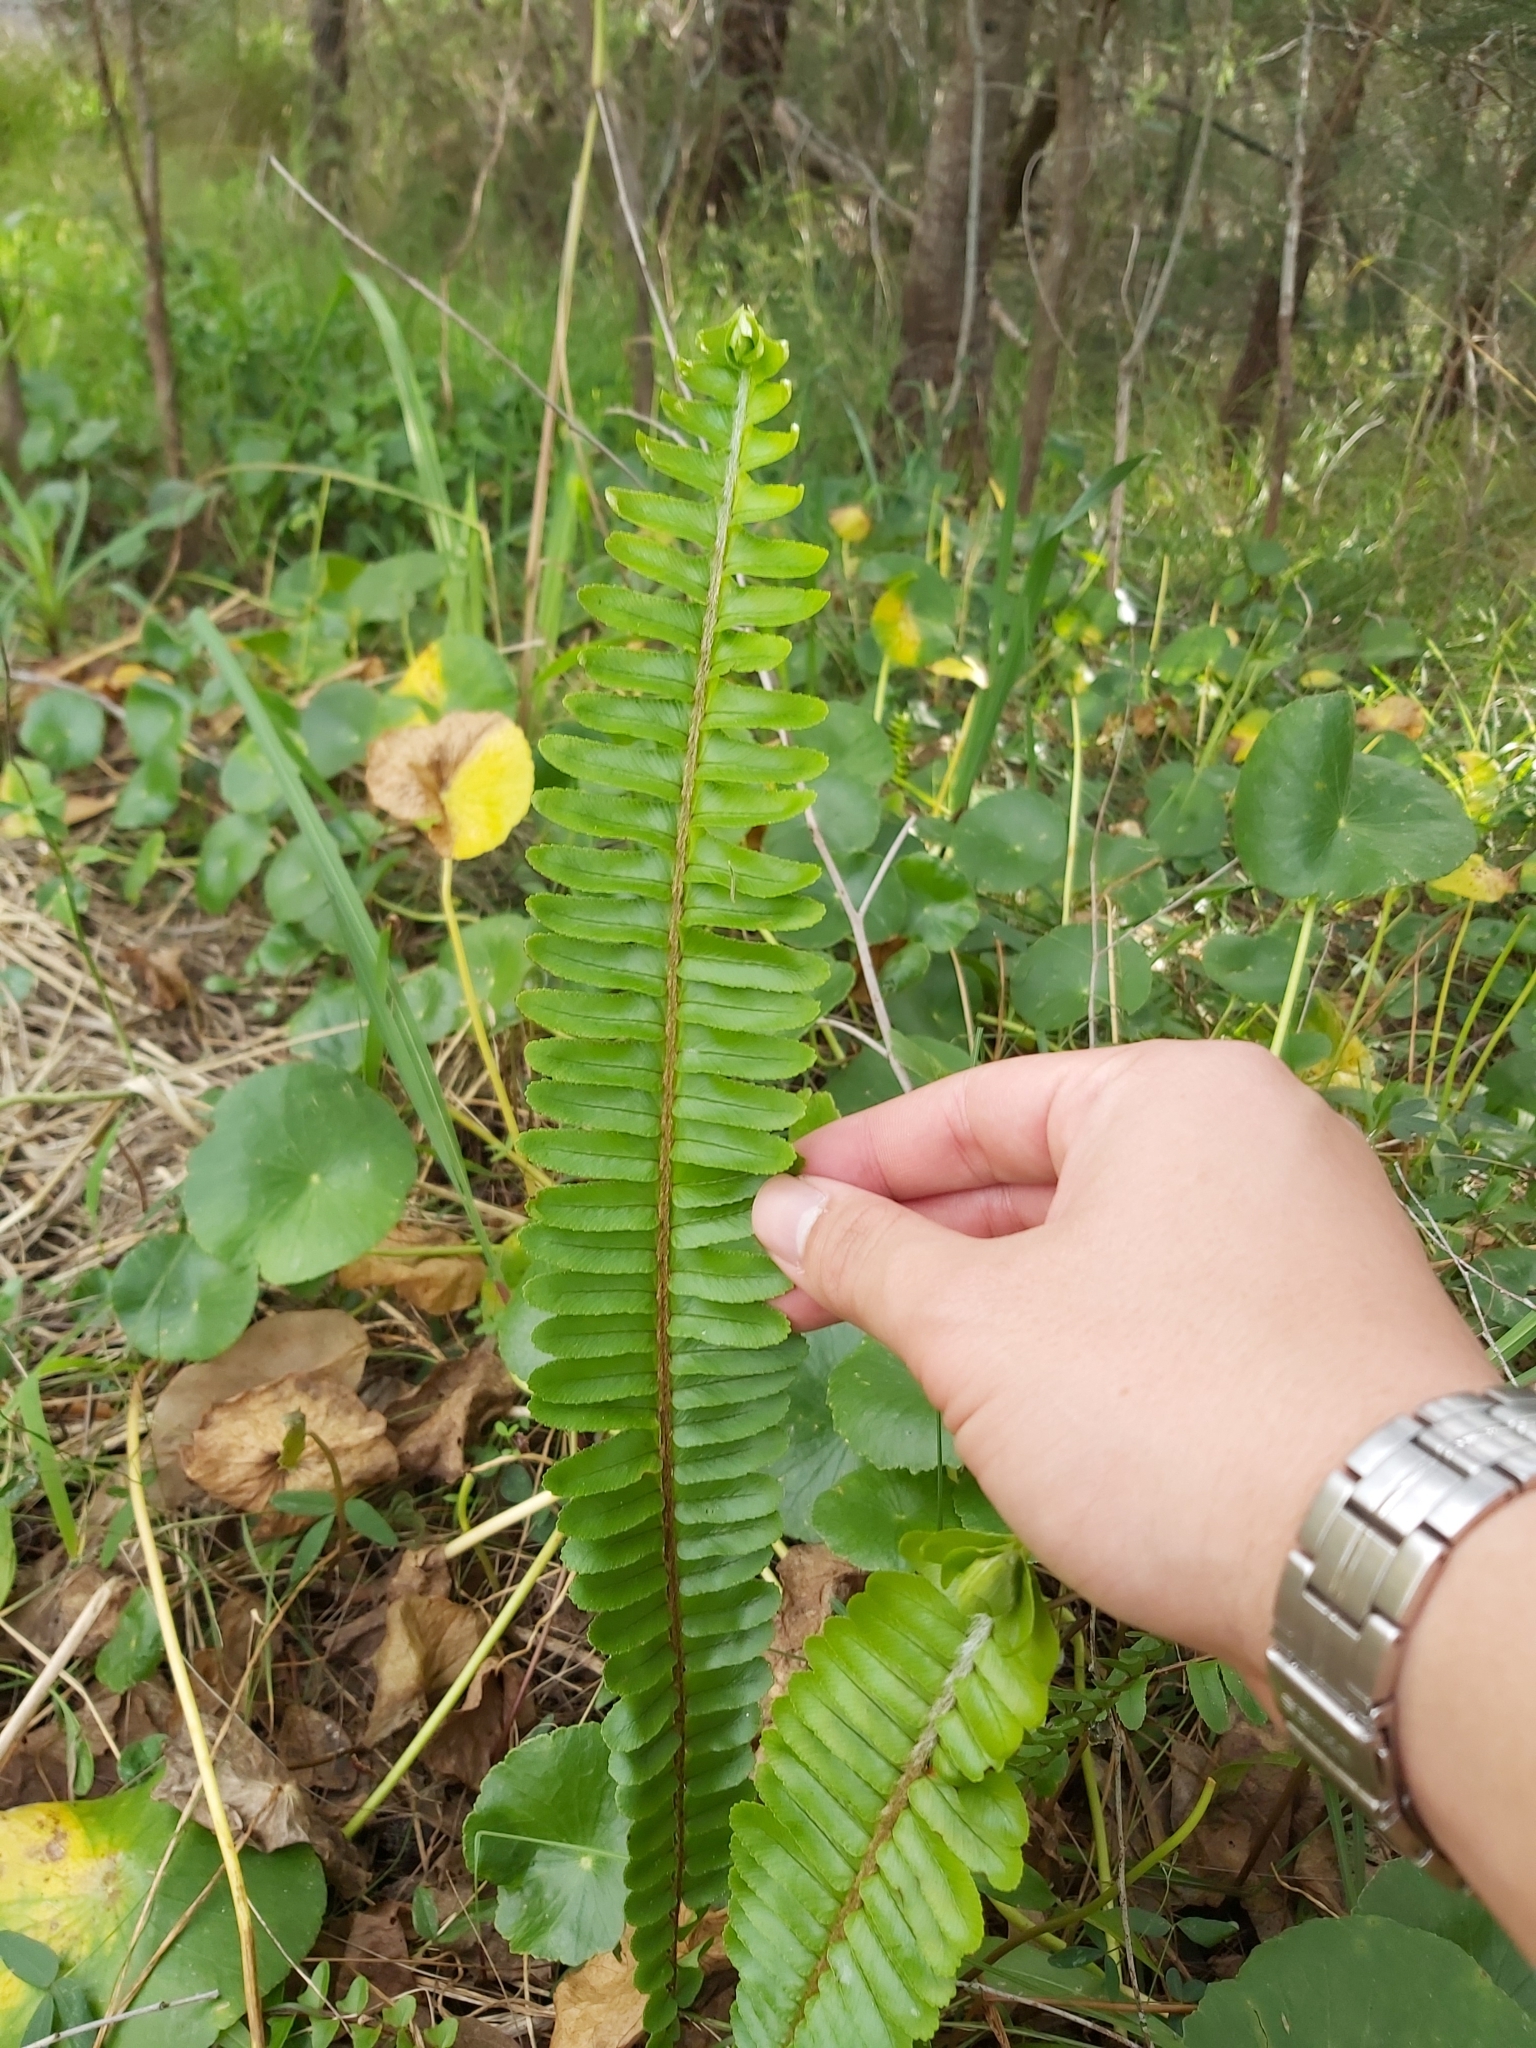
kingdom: Plantae
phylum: Tracheophyta
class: Polypodiopsida
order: Polypodiales
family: Nephrolepidaceae
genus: Nephrolepis
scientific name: Nephrolepis cordifolia
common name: Narrow swordfern
